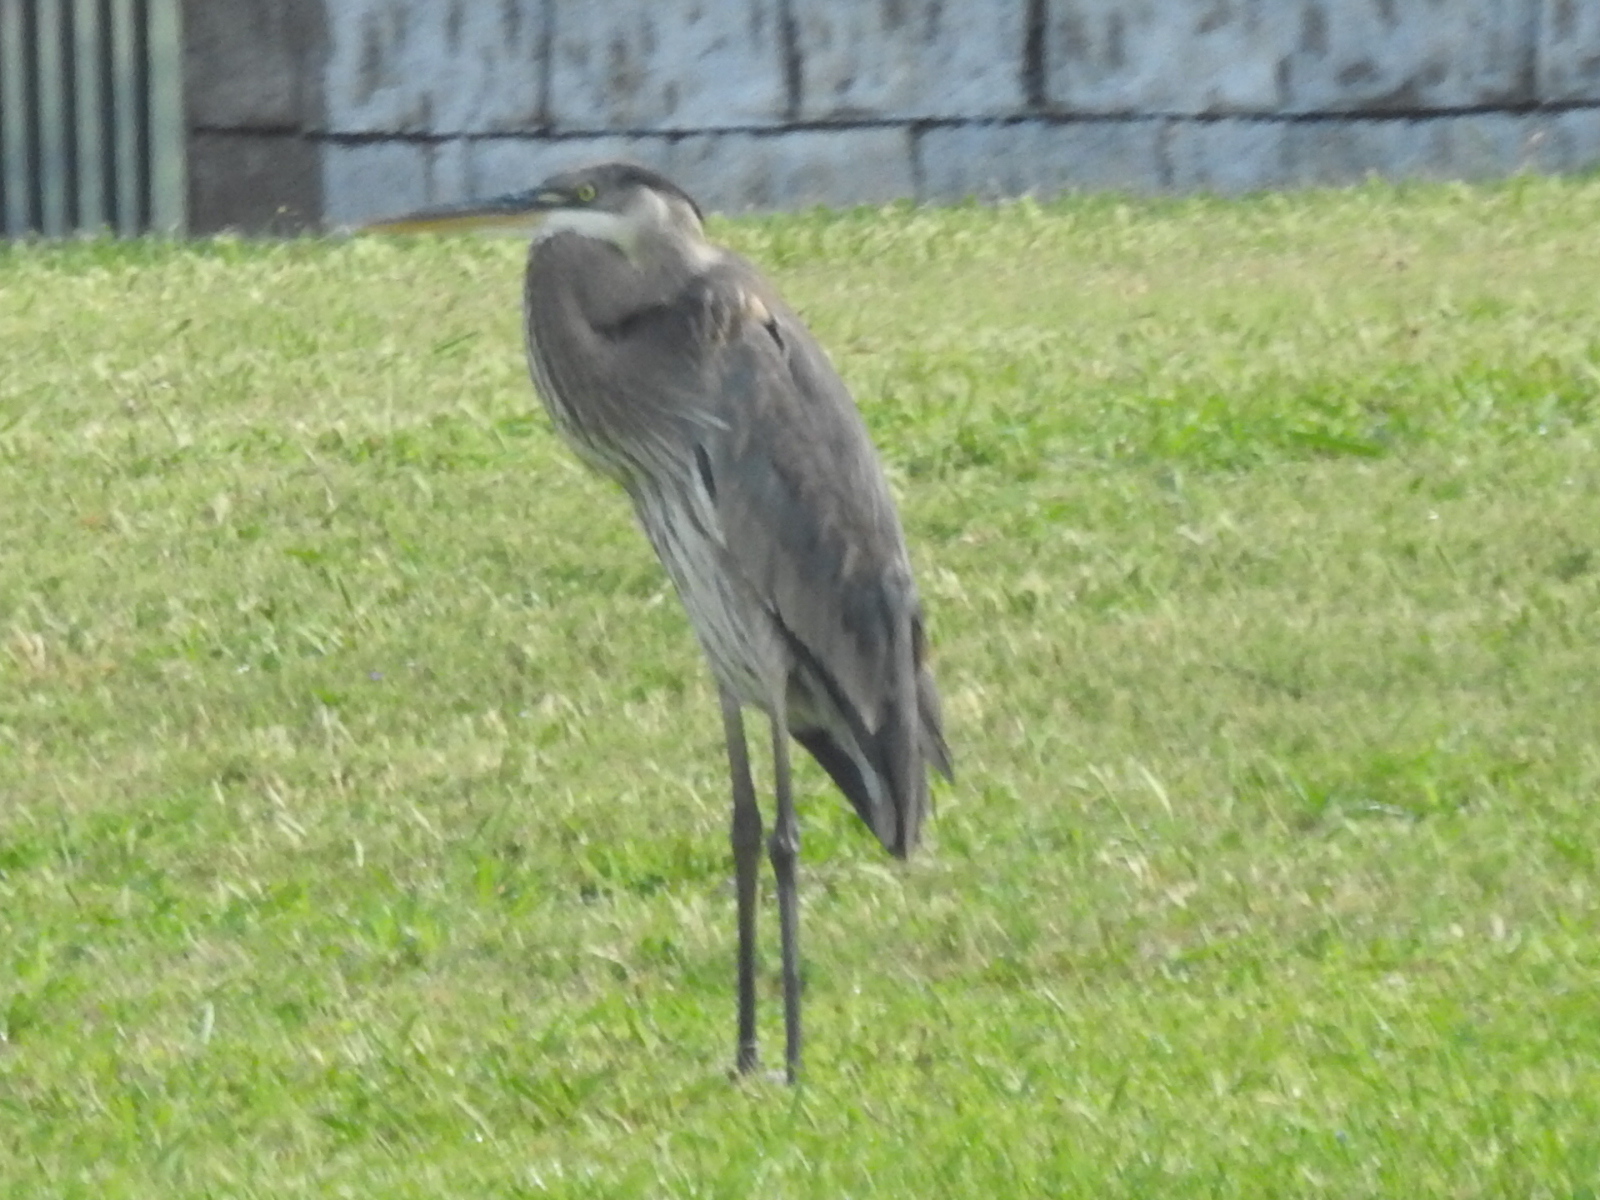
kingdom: Animalia
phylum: Chordata
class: Aves
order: Pelecaniformes
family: Ardeidae
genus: Ardea
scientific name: Ardea herodias
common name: Great blue heron
